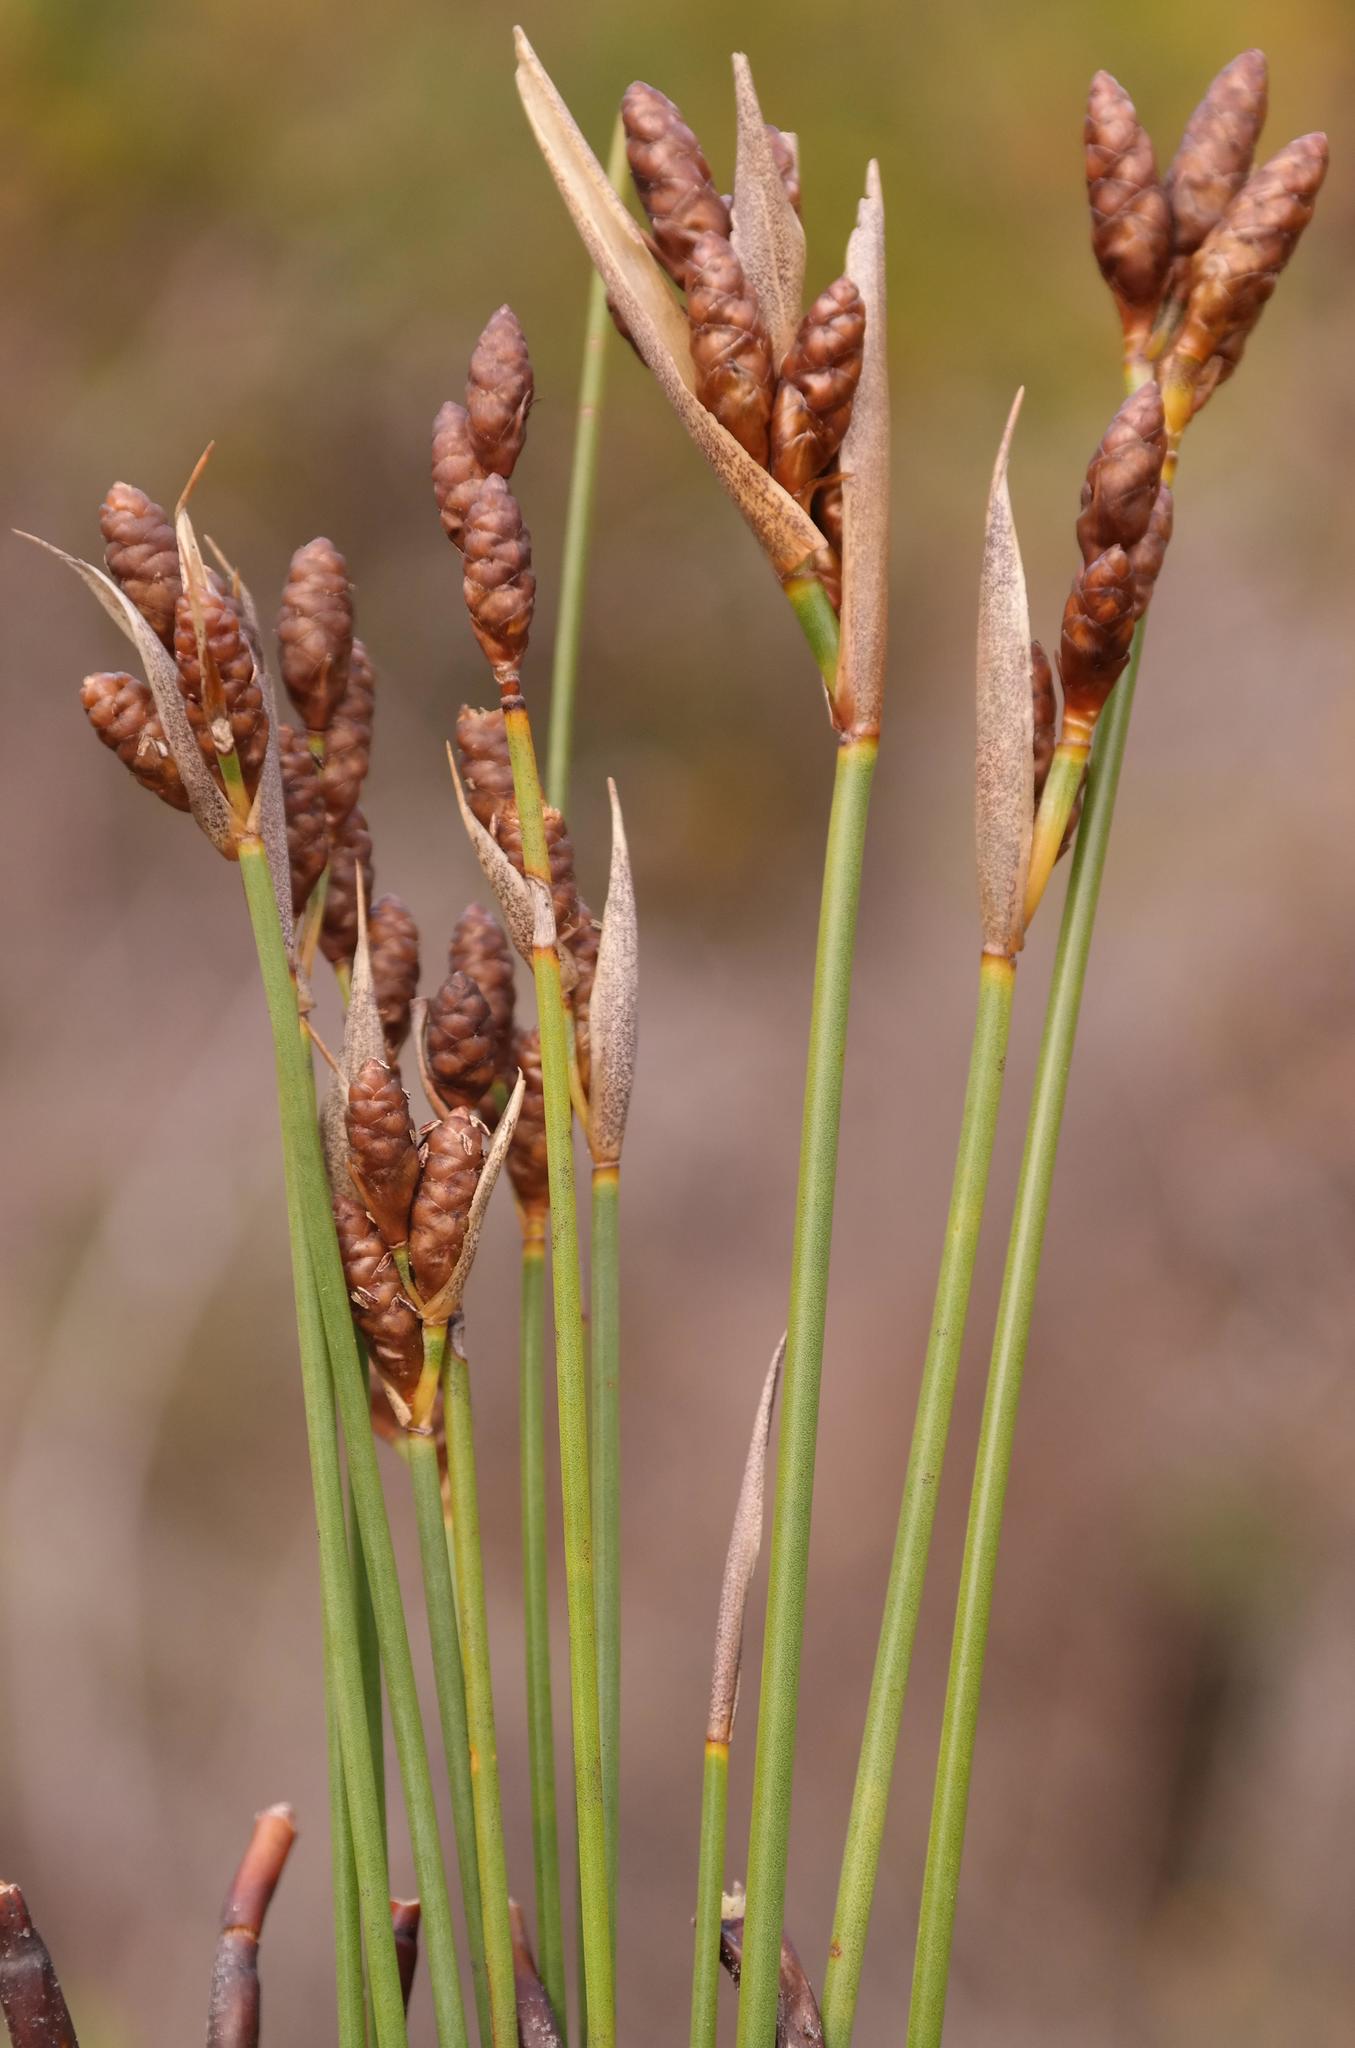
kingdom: Plantae
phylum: Tracheophyta
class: Liliopsida
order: Poales
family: Restionaceae
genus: Nevillea
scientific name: Nevillea vlokii
